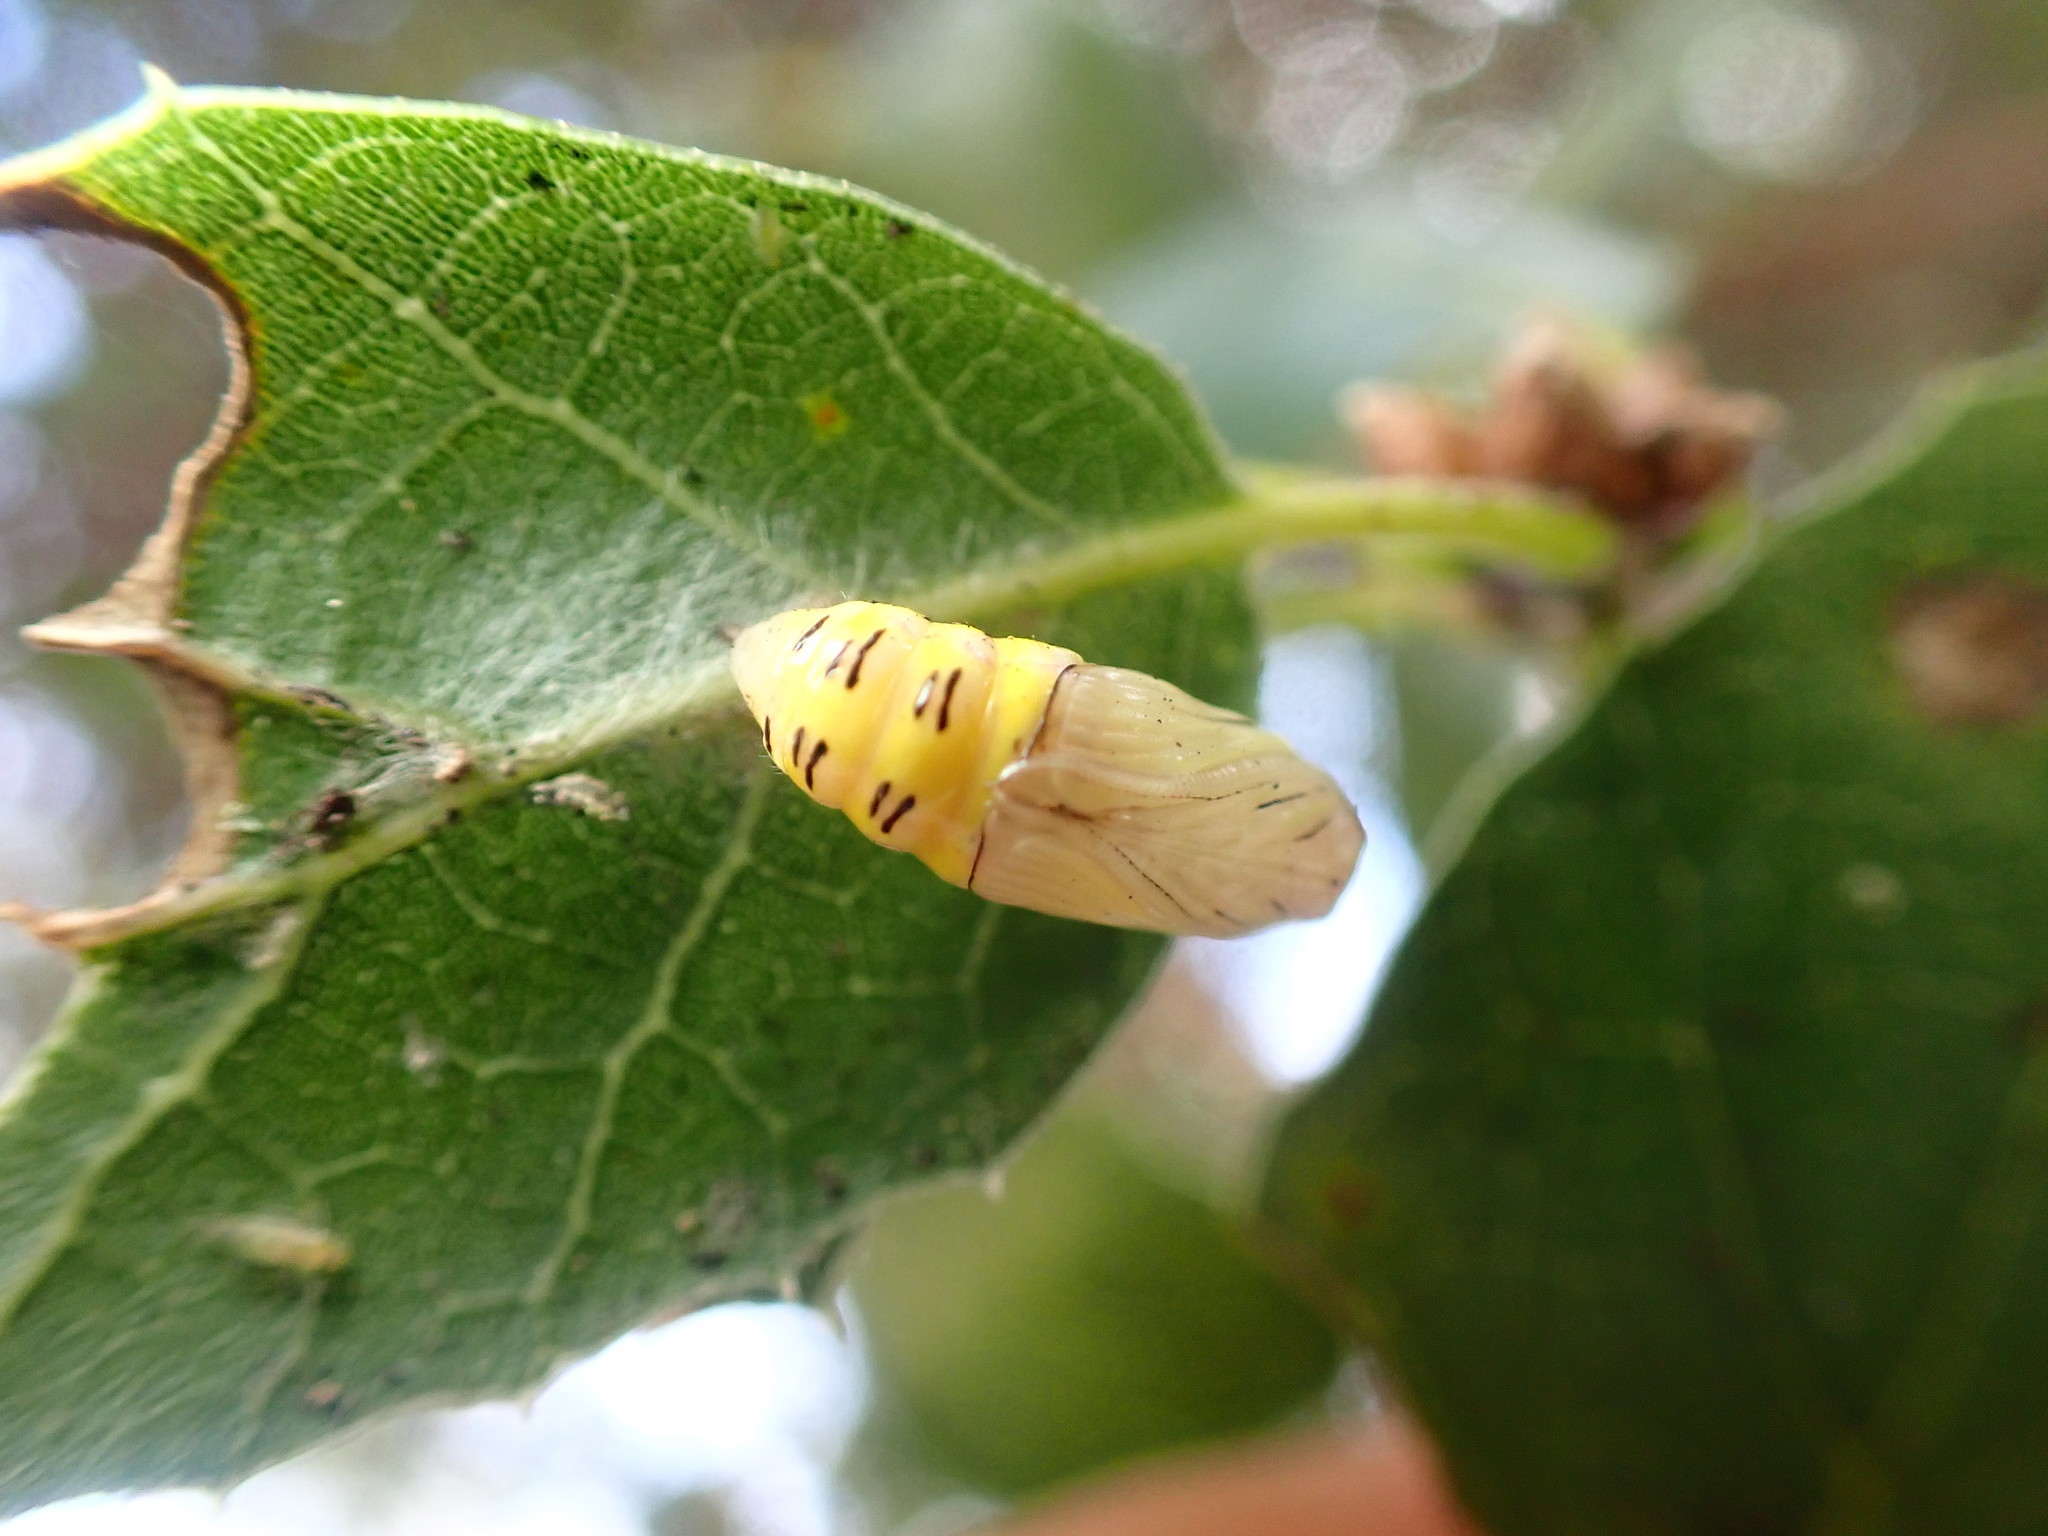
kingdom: Animalia
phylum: Arthropoda
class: Insecta
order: Lepidoptera
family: Notodontidae
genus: Phryganidia
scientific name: Phryganidia californica
